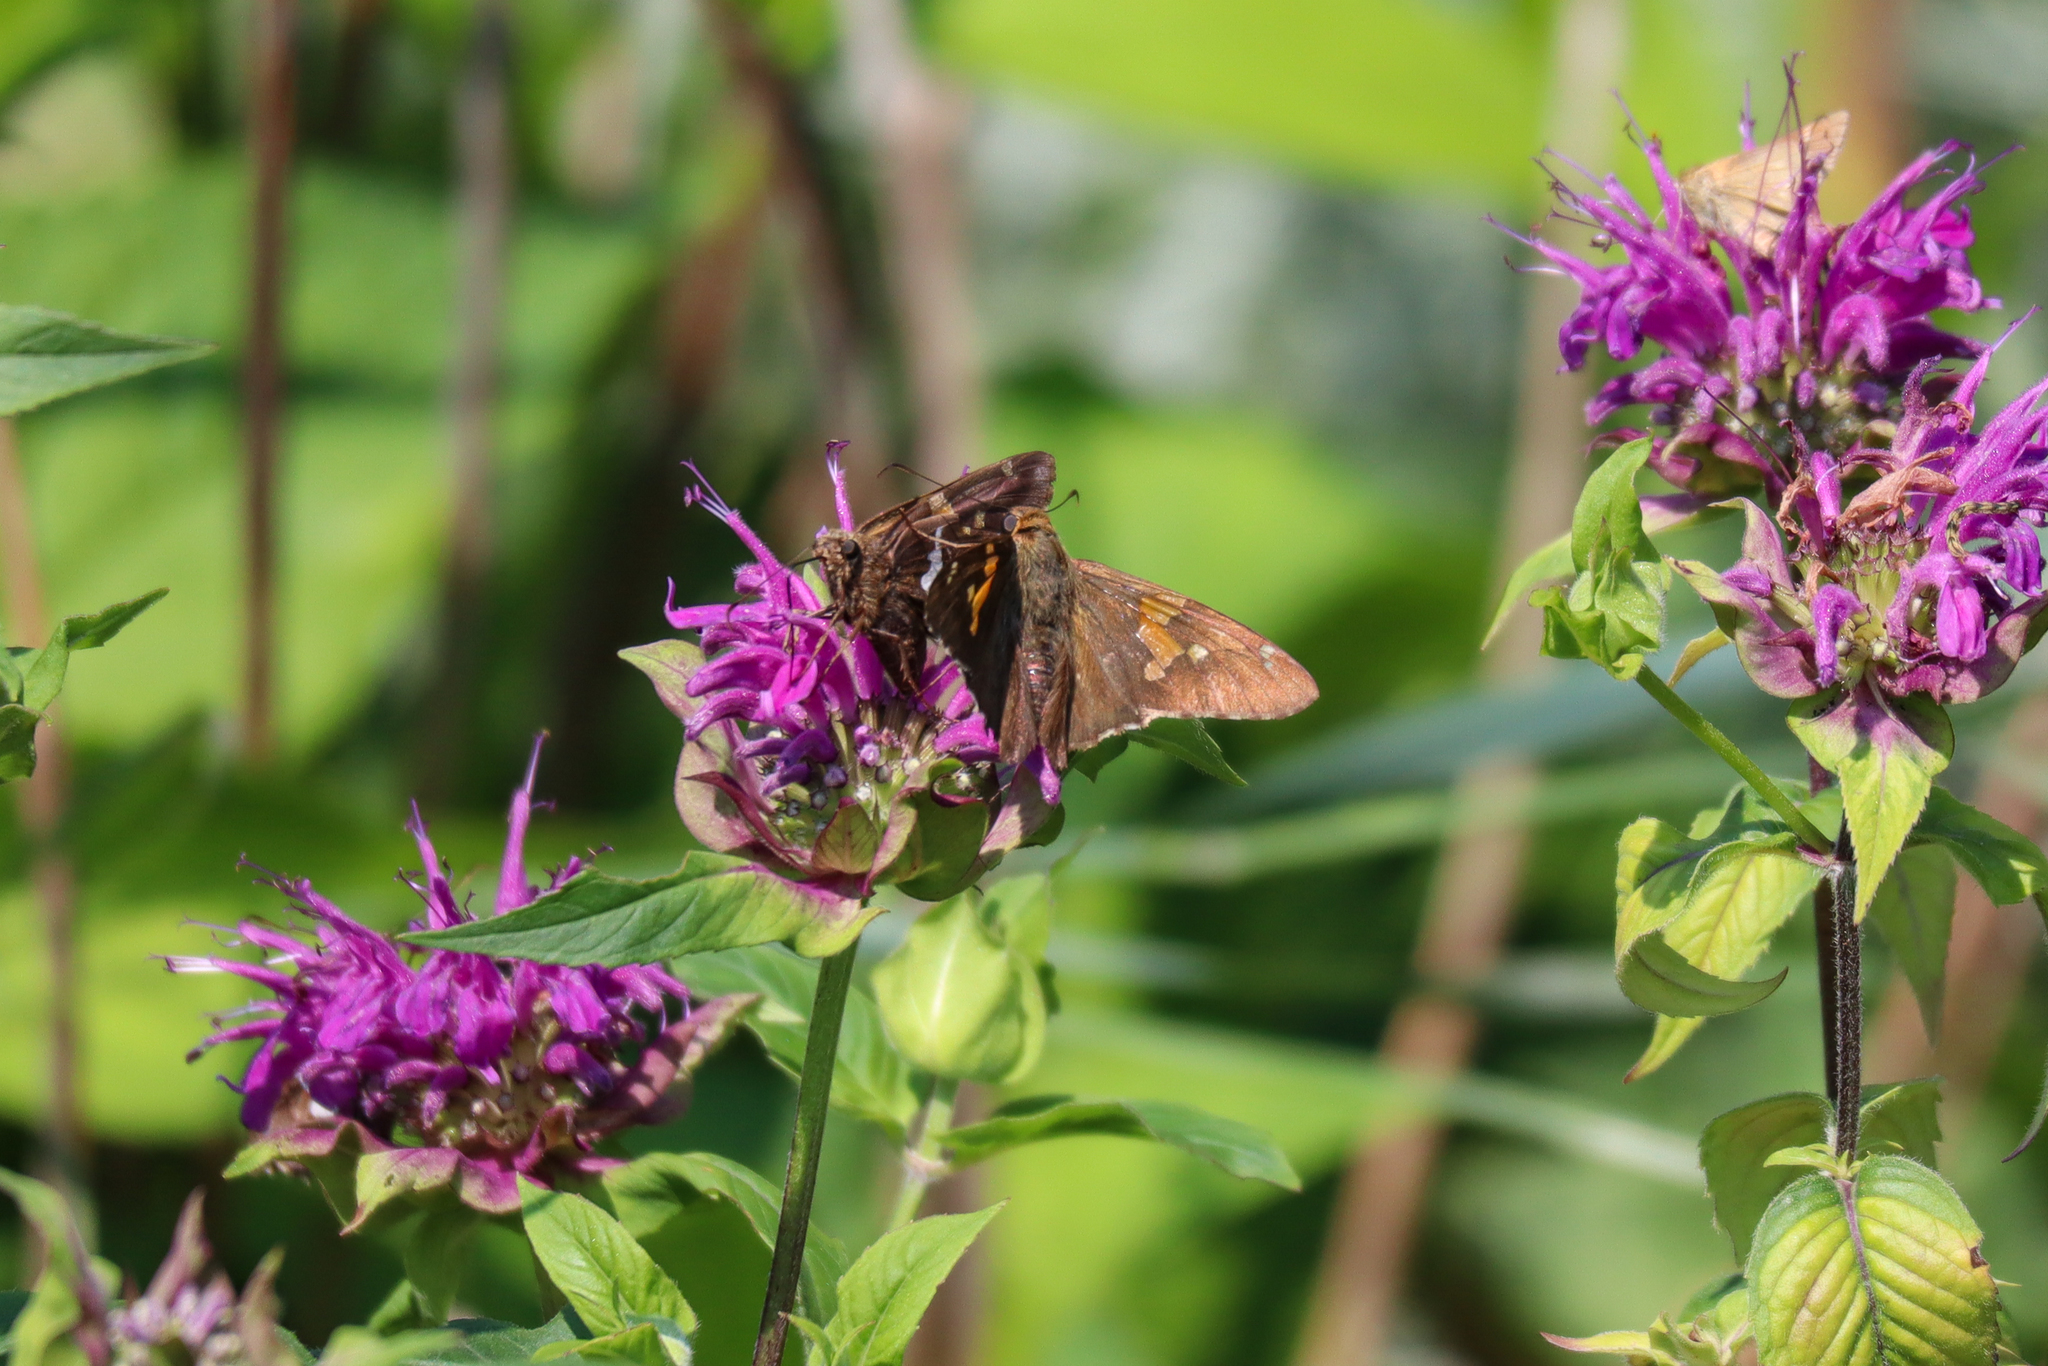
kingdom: Animalia
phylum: Arthropoda
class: Insecta
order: Lepidoptera
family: Hesperiidae
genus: Epargyreus
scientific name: Epargyreus clarus
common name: Silver-spotted skipper
